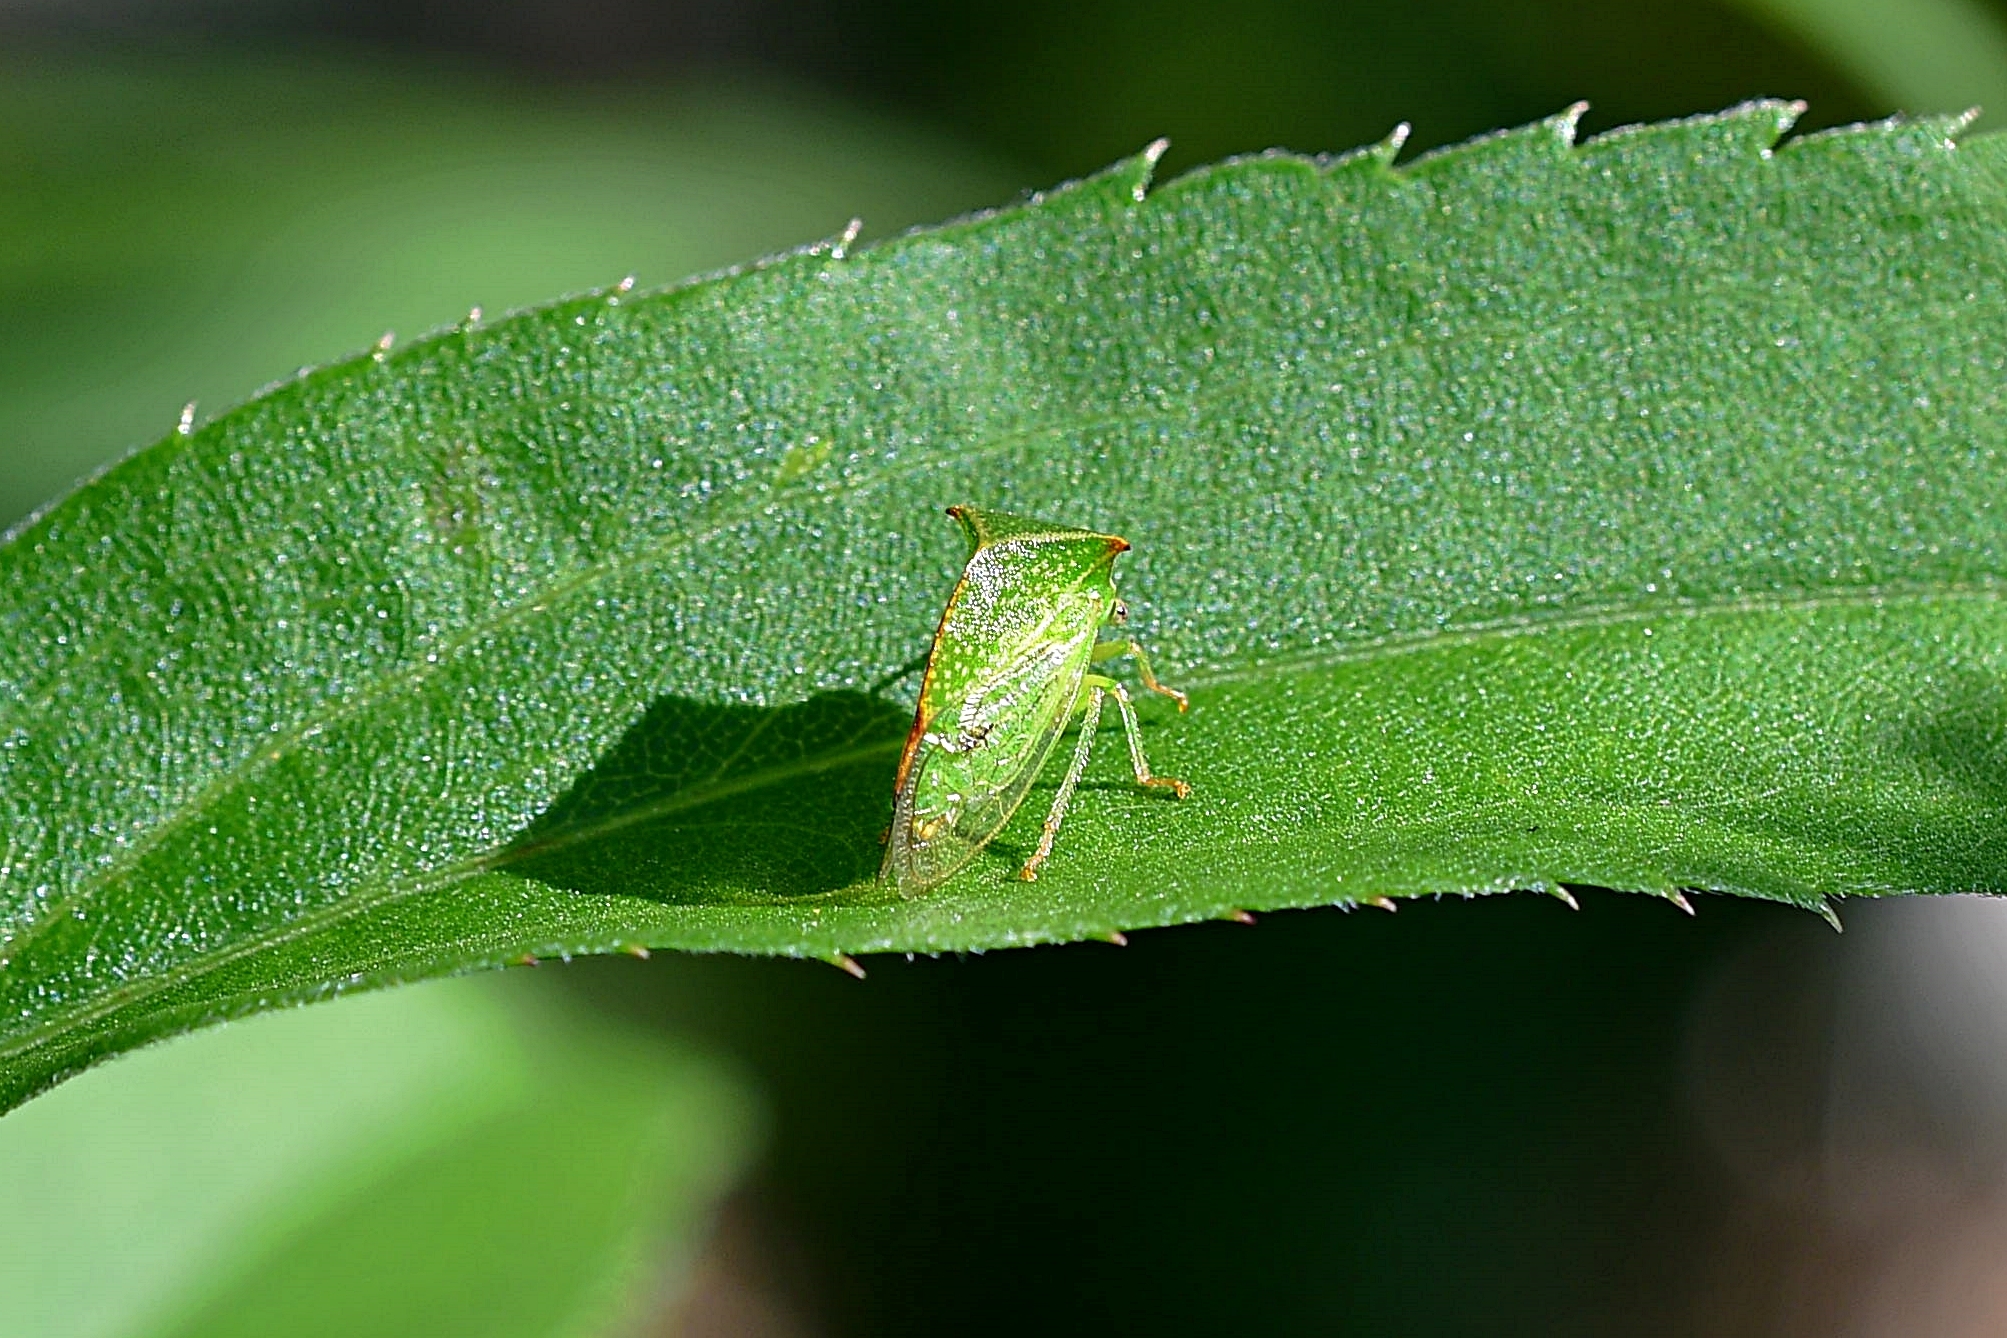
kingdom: Animalia
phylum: Arthropoda
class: Insecta
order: Hemiptera
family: Membracidae
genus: Stictocephala
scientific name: Stictocephala bisonia
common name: American buffalo treehopper
